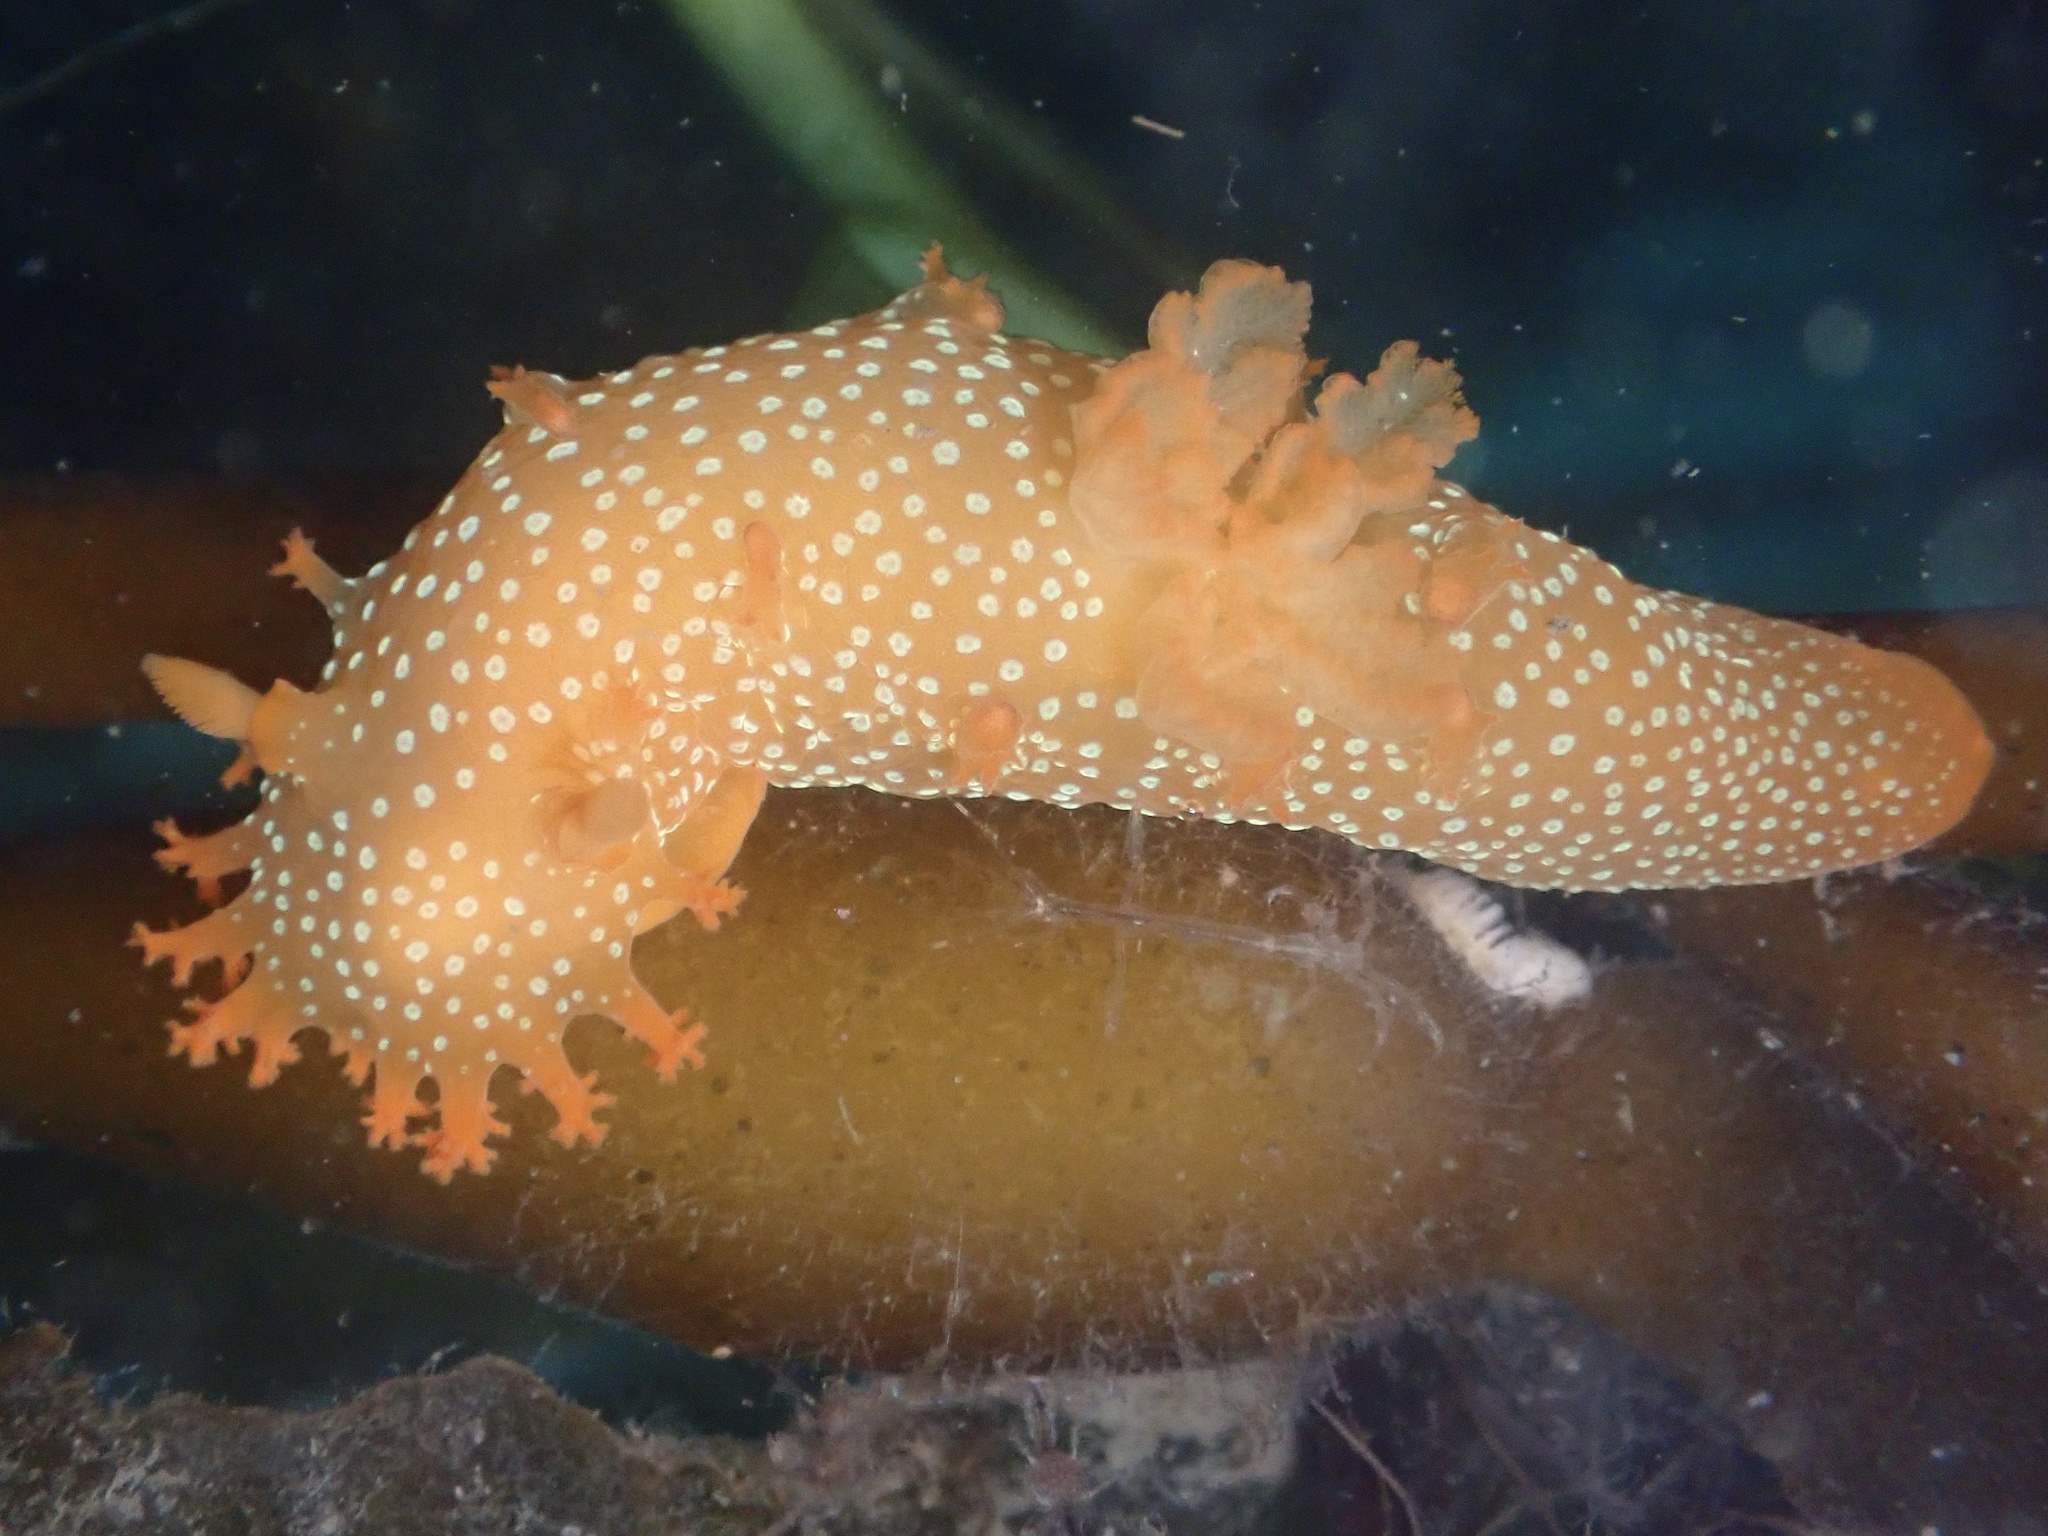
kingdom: Animalia
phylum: Mollusca
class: Gastropoda
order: Nudibranchia
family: Polyceridae
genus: Triopha
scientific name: Triopha maculata
